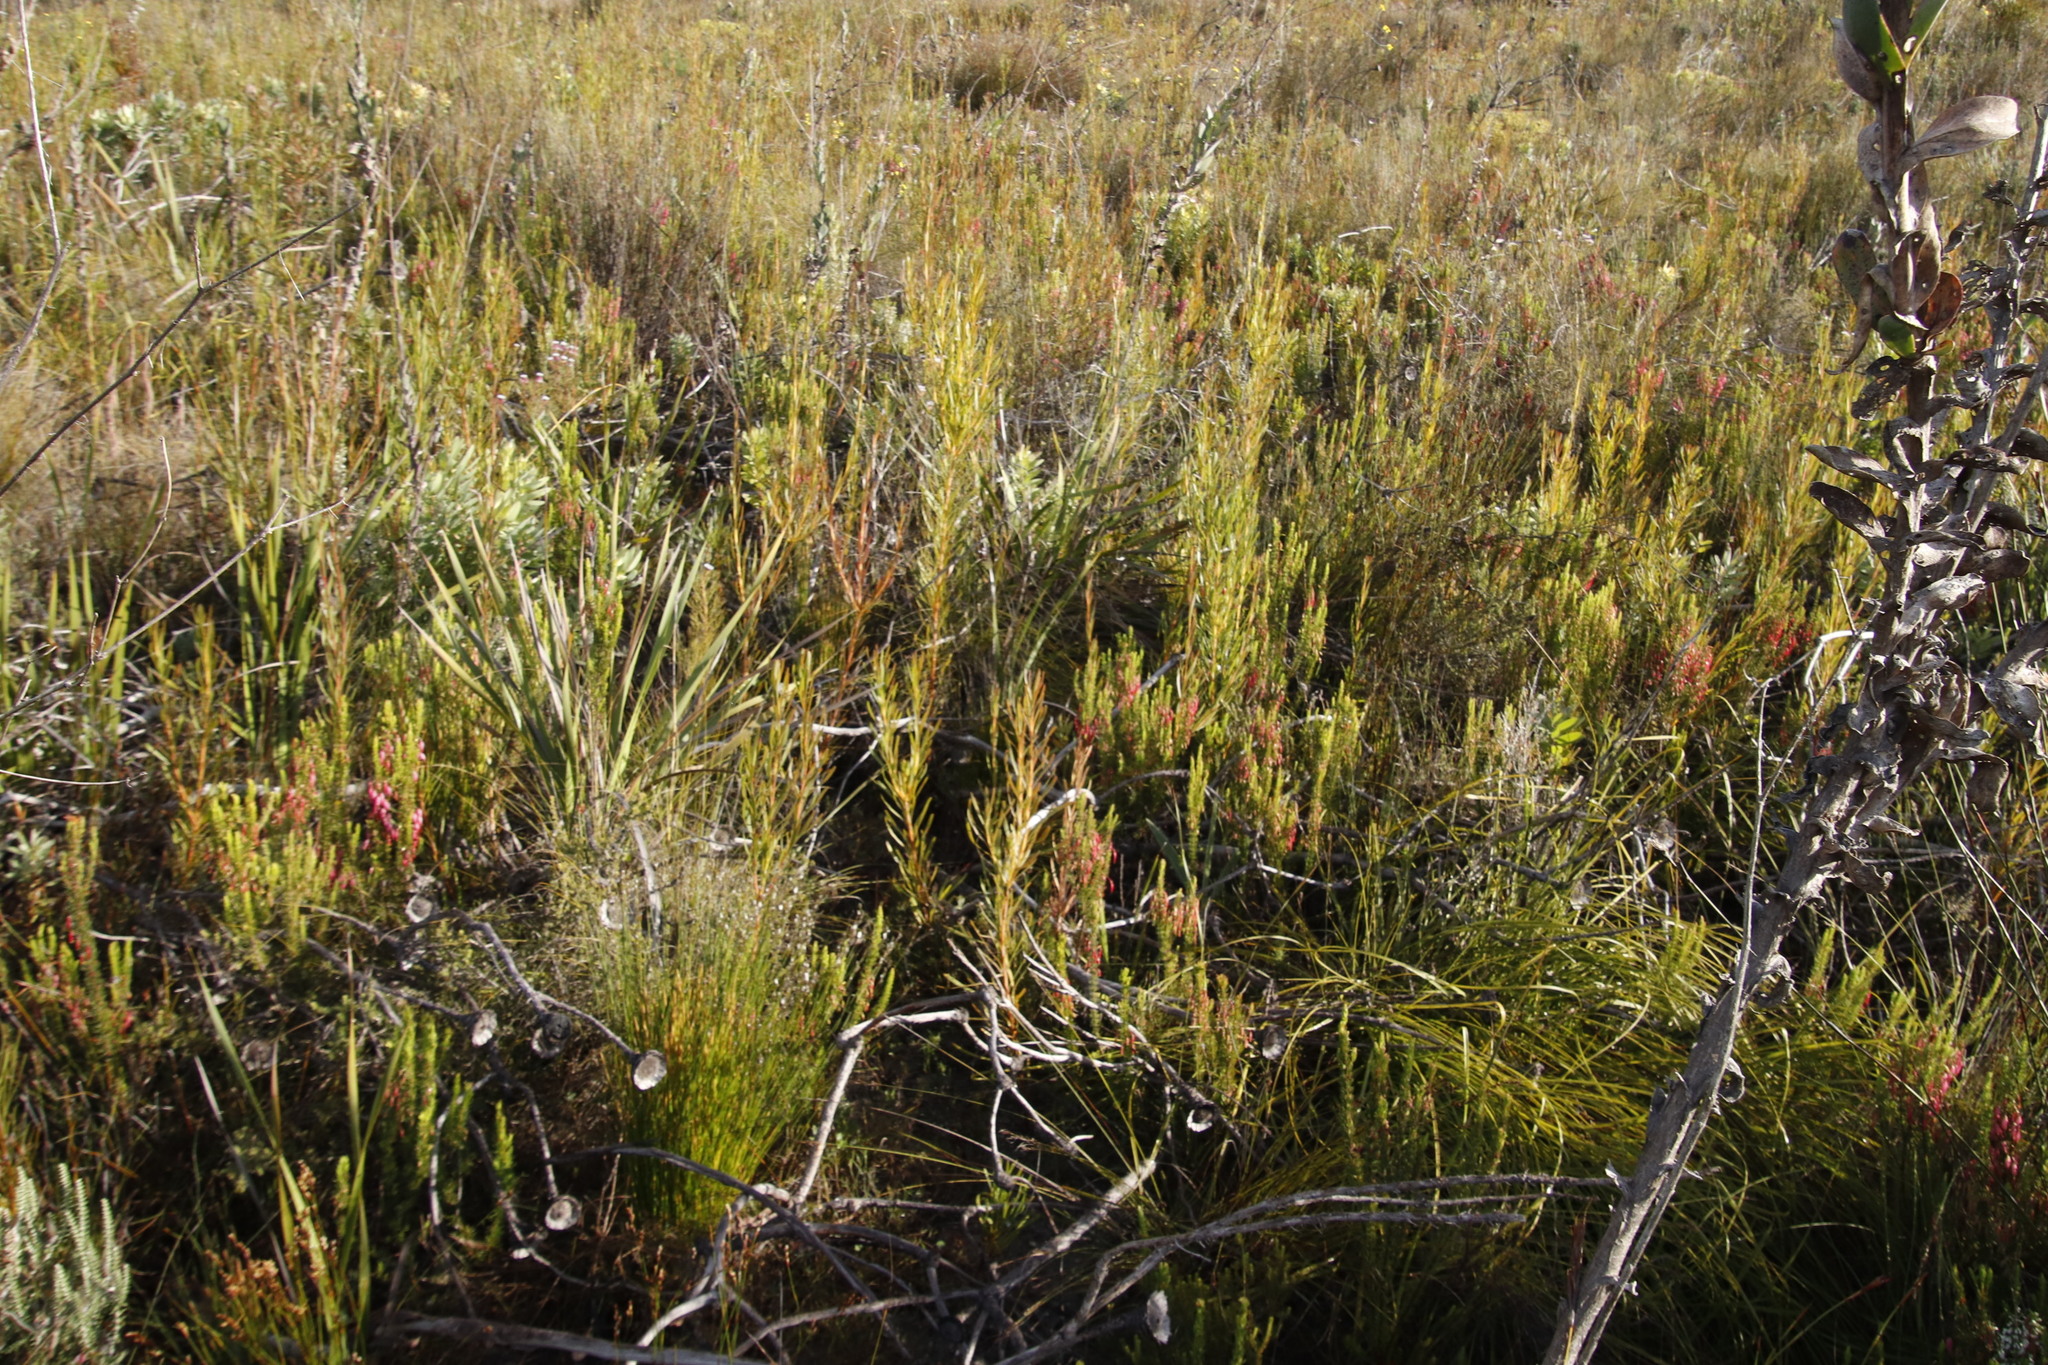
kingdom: Plantae
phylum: Tracheophyta
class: Magnoliopsida
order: Proteales
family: Proteaceae
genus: Aulax
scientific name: Aulax umbellata
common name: Broad-leaf featherbush
